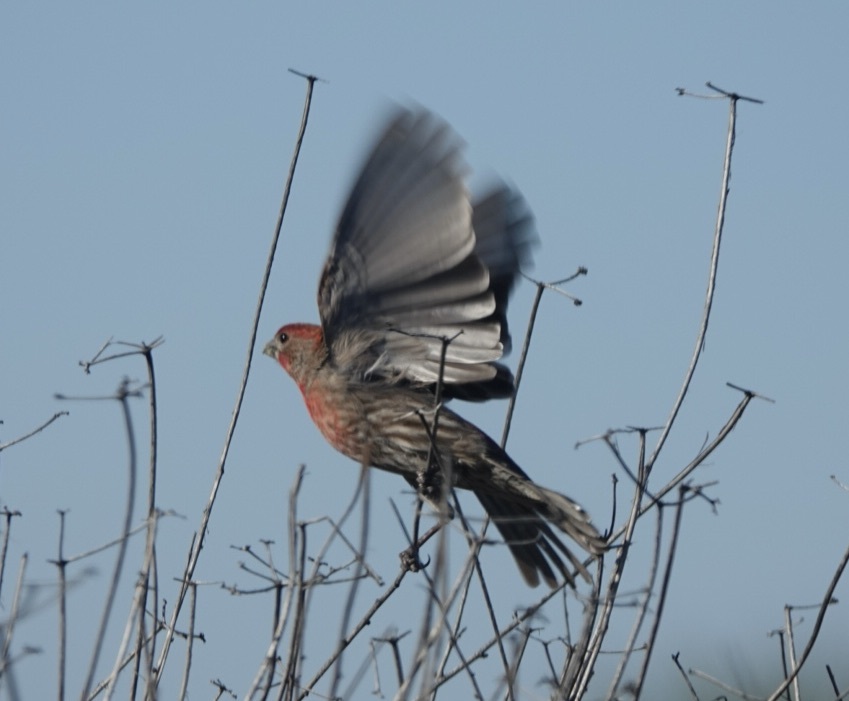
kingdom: Animalia
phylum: Chordata
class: Aves
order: Passeriformes
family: Fringillidae
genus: Haemorhous
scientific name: Haemorhous mexicanus
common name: House finch
